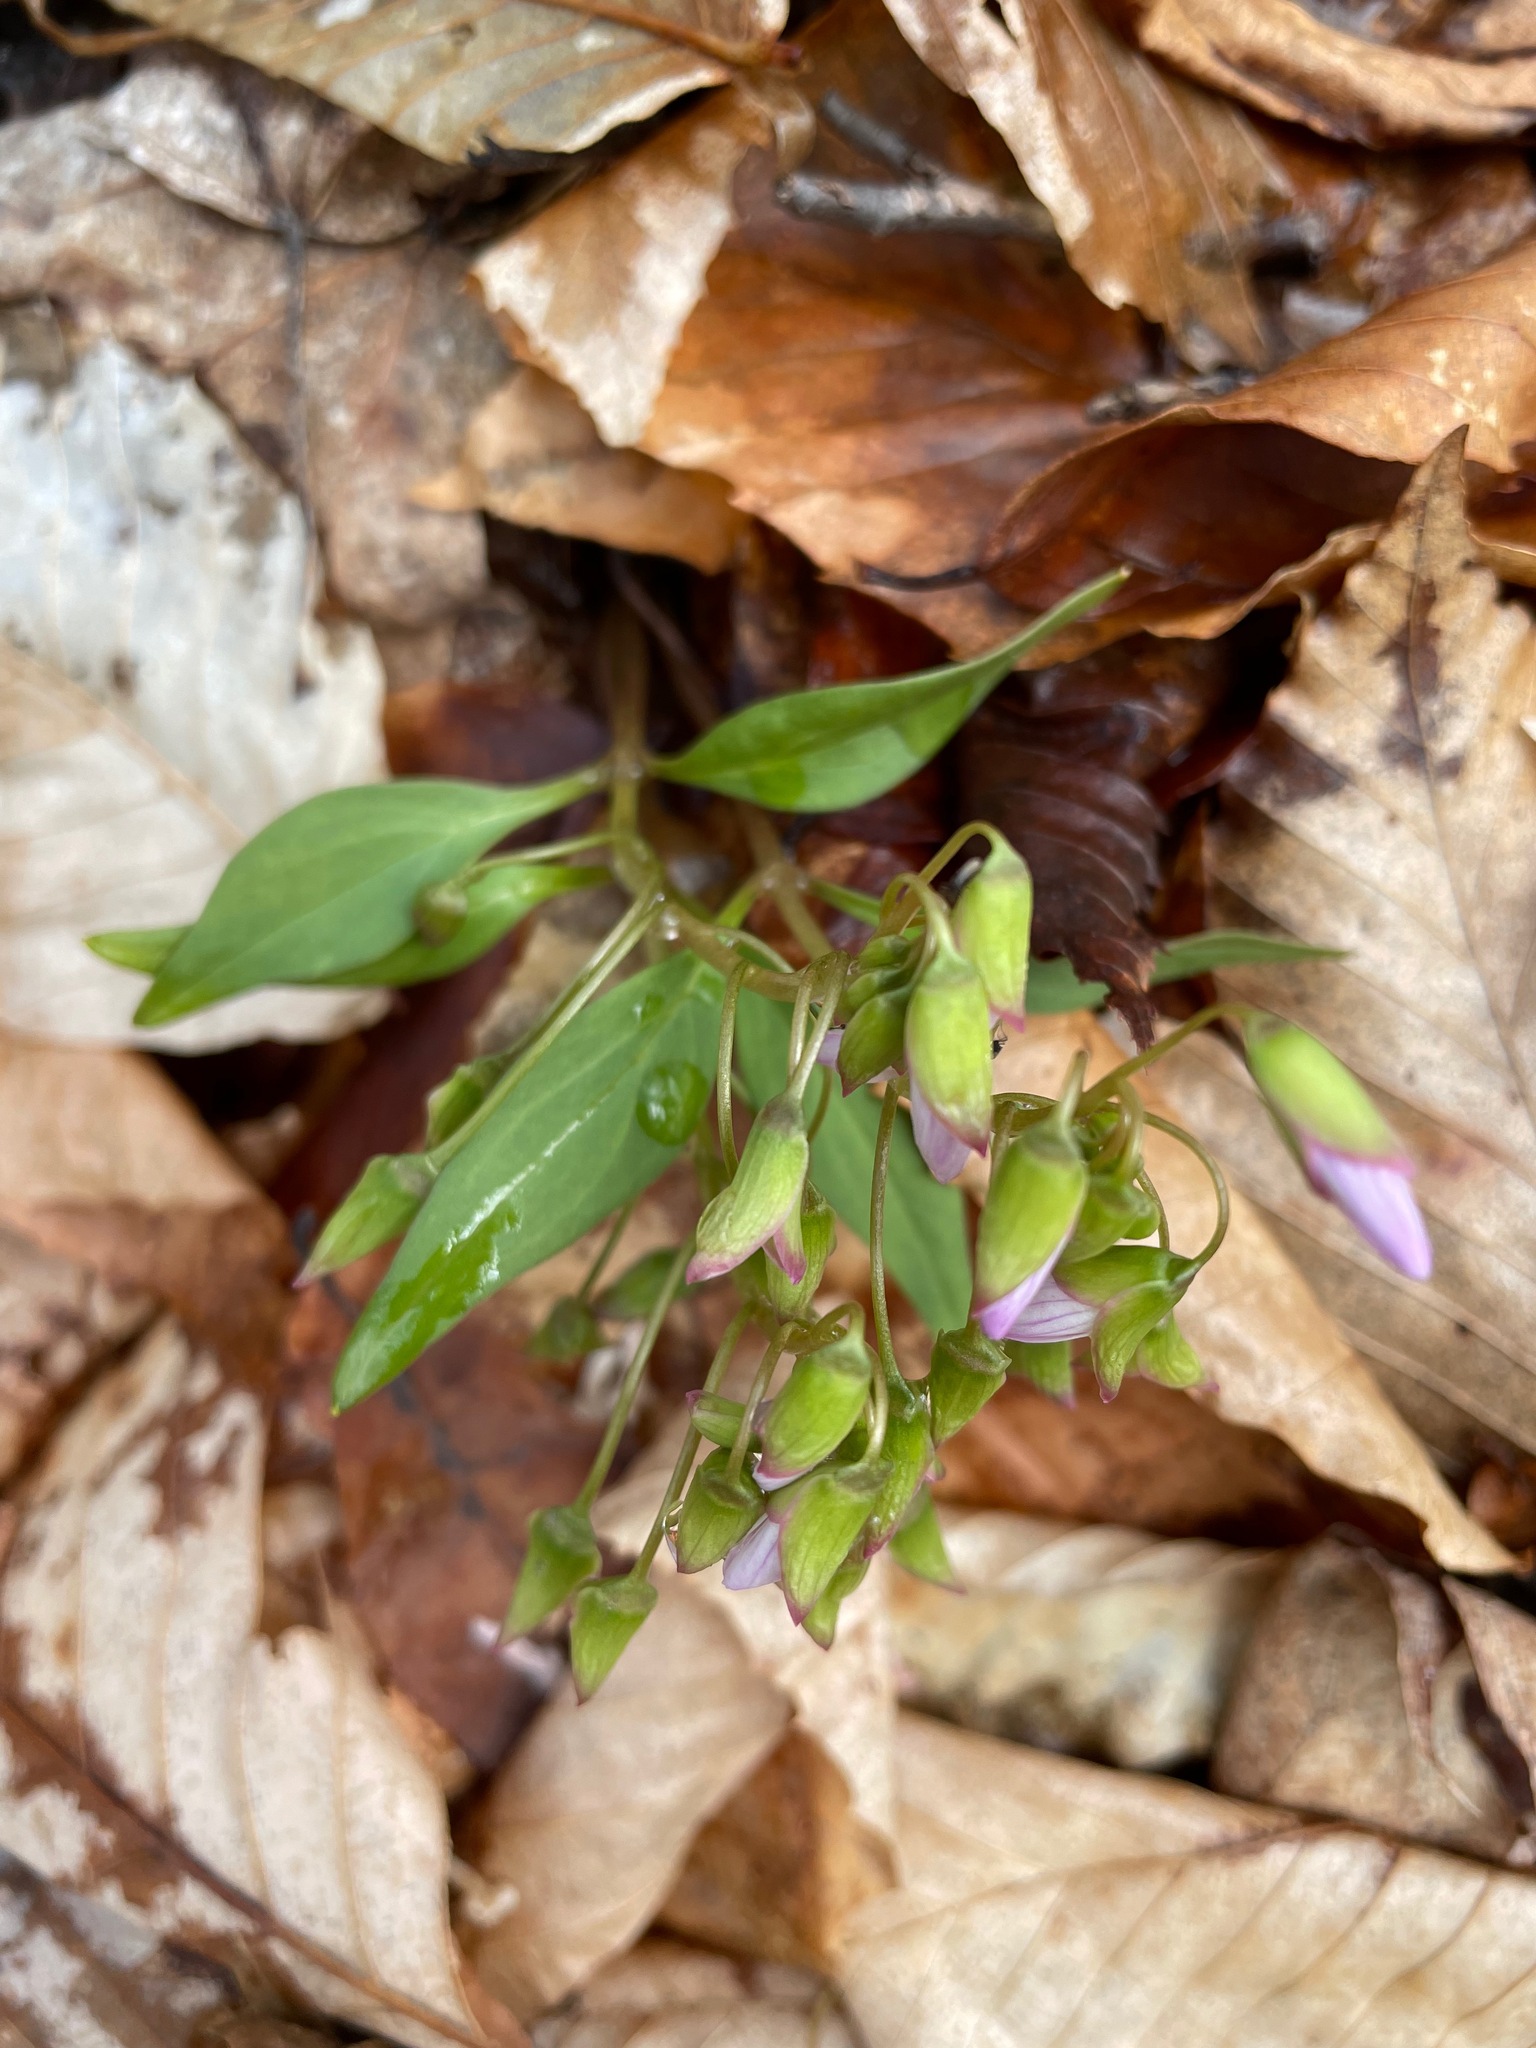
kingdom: Plantae
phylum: Tracheophyta
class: Magnoliopsida
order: Caryophyllales
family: Montiaceae
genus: Claytonia
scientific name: Claytonia caroliniana
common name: Carolina spring beauty
